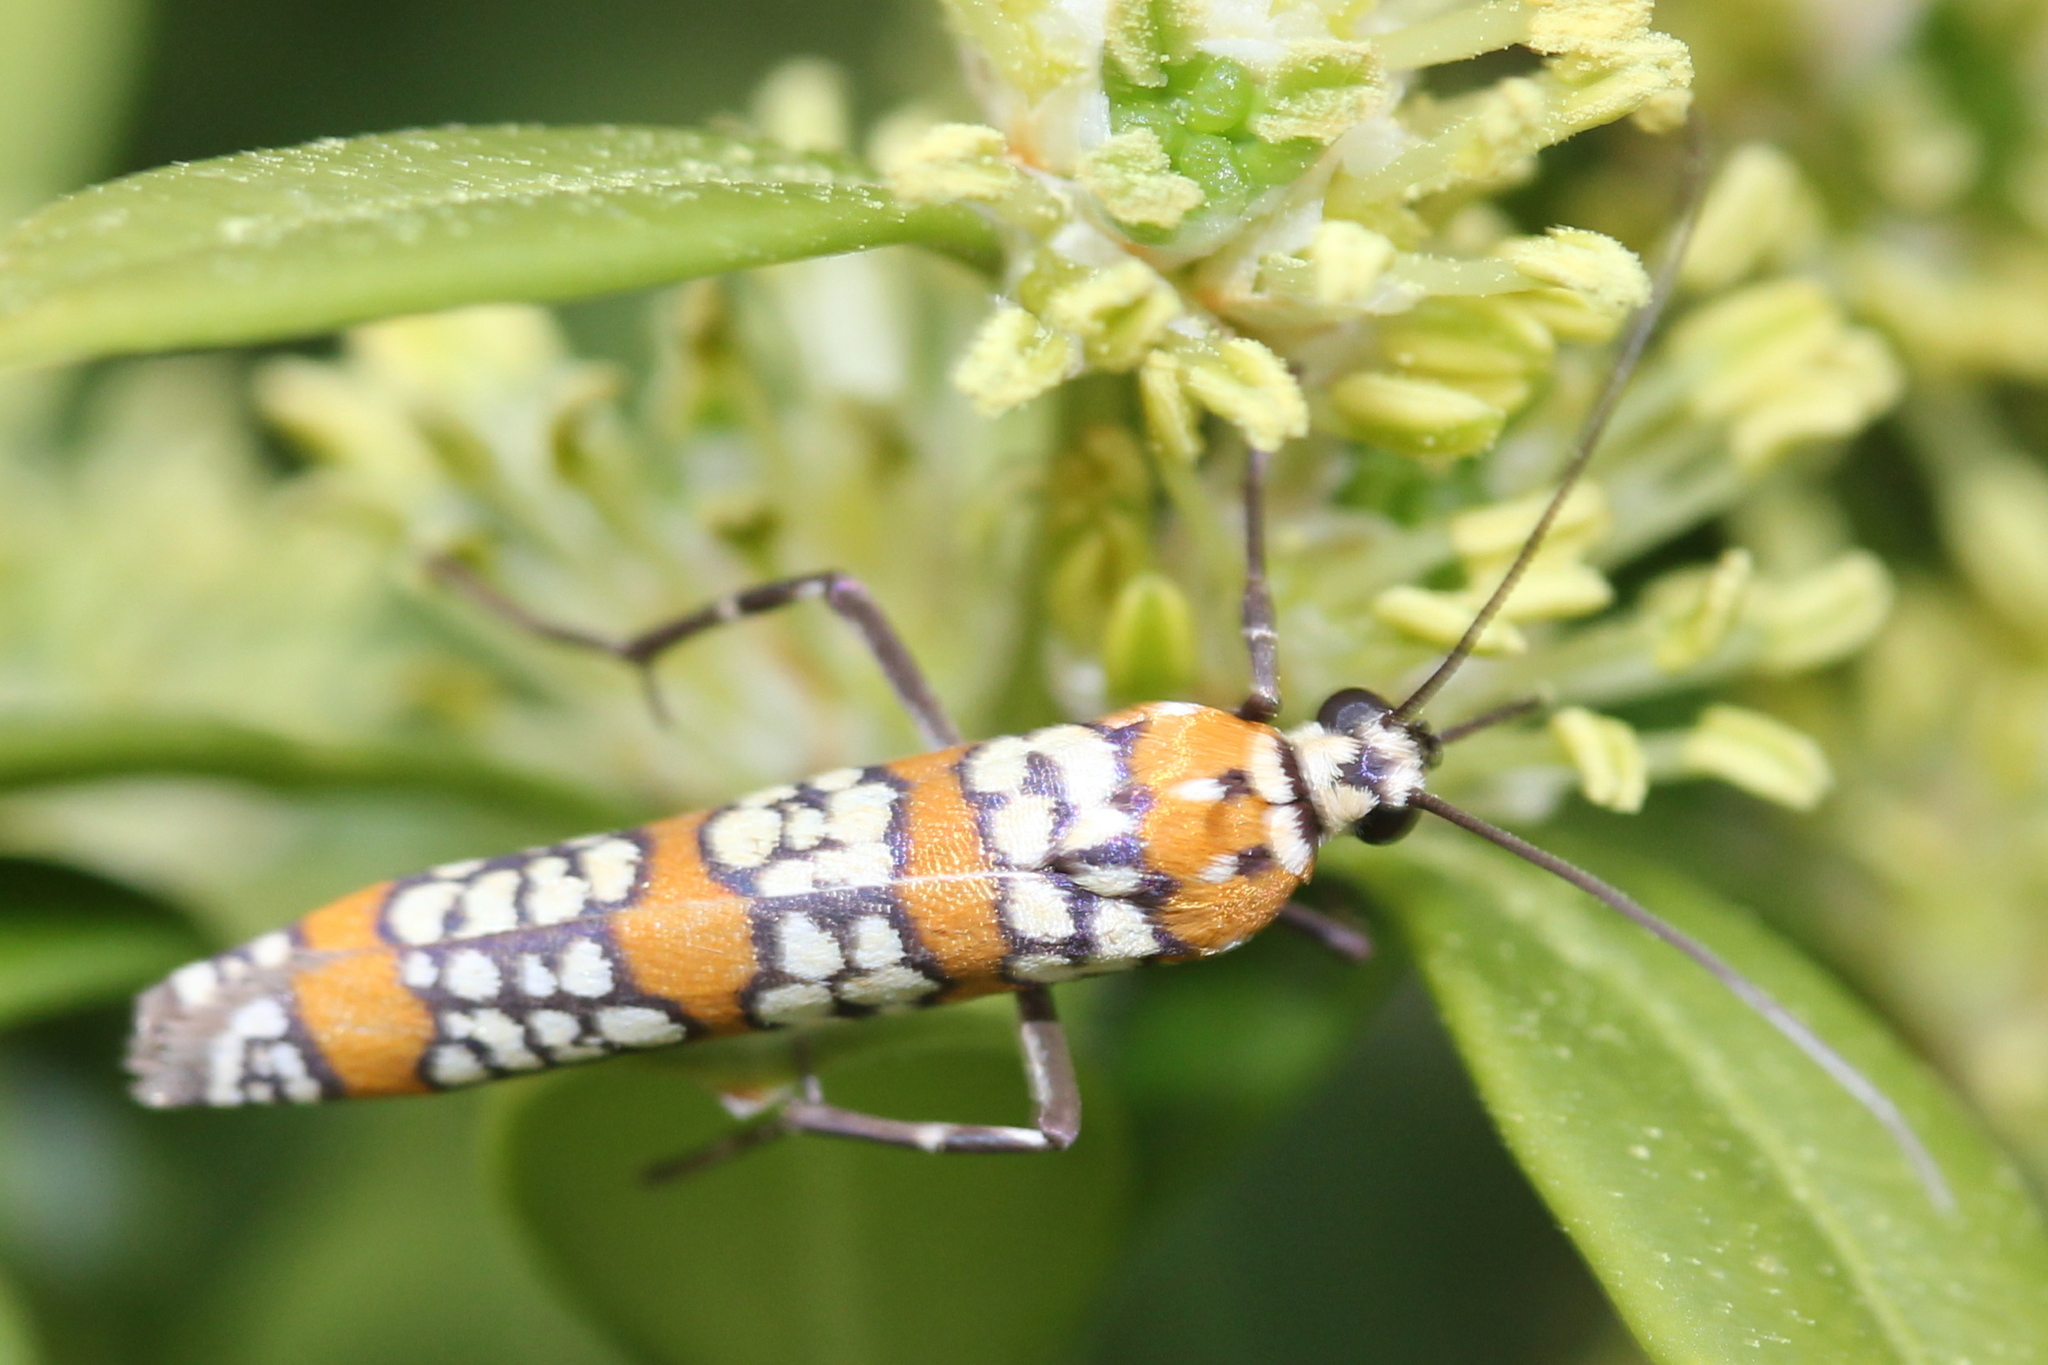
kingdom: Animalia
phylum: Arthropoda
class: Insecta
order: Lepidoptera
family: Attevidae
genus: Atteva
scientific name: Atteva punctella
